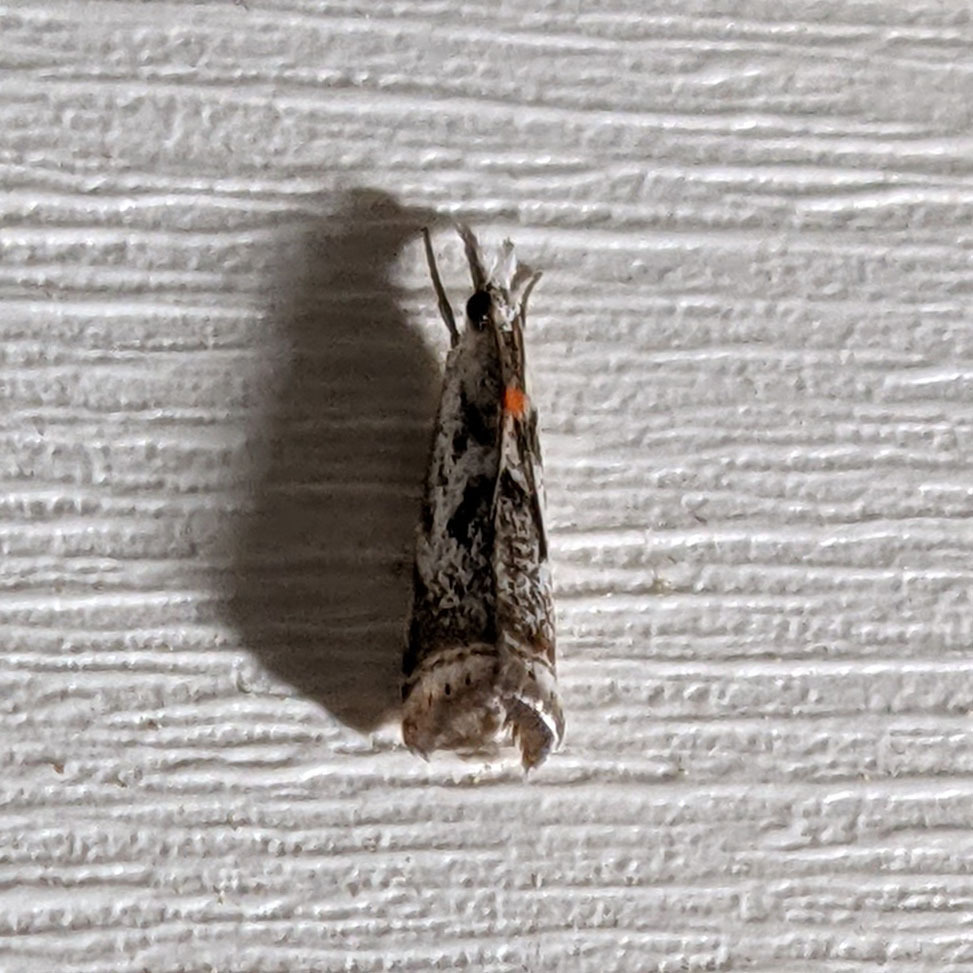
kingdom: Animalia
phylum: Arthropoda
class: Insecta
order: Lepidoptera
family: Crambidae
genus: Microcrambus
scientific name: Microcrambus elegans
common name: Elegant grass-veneer
